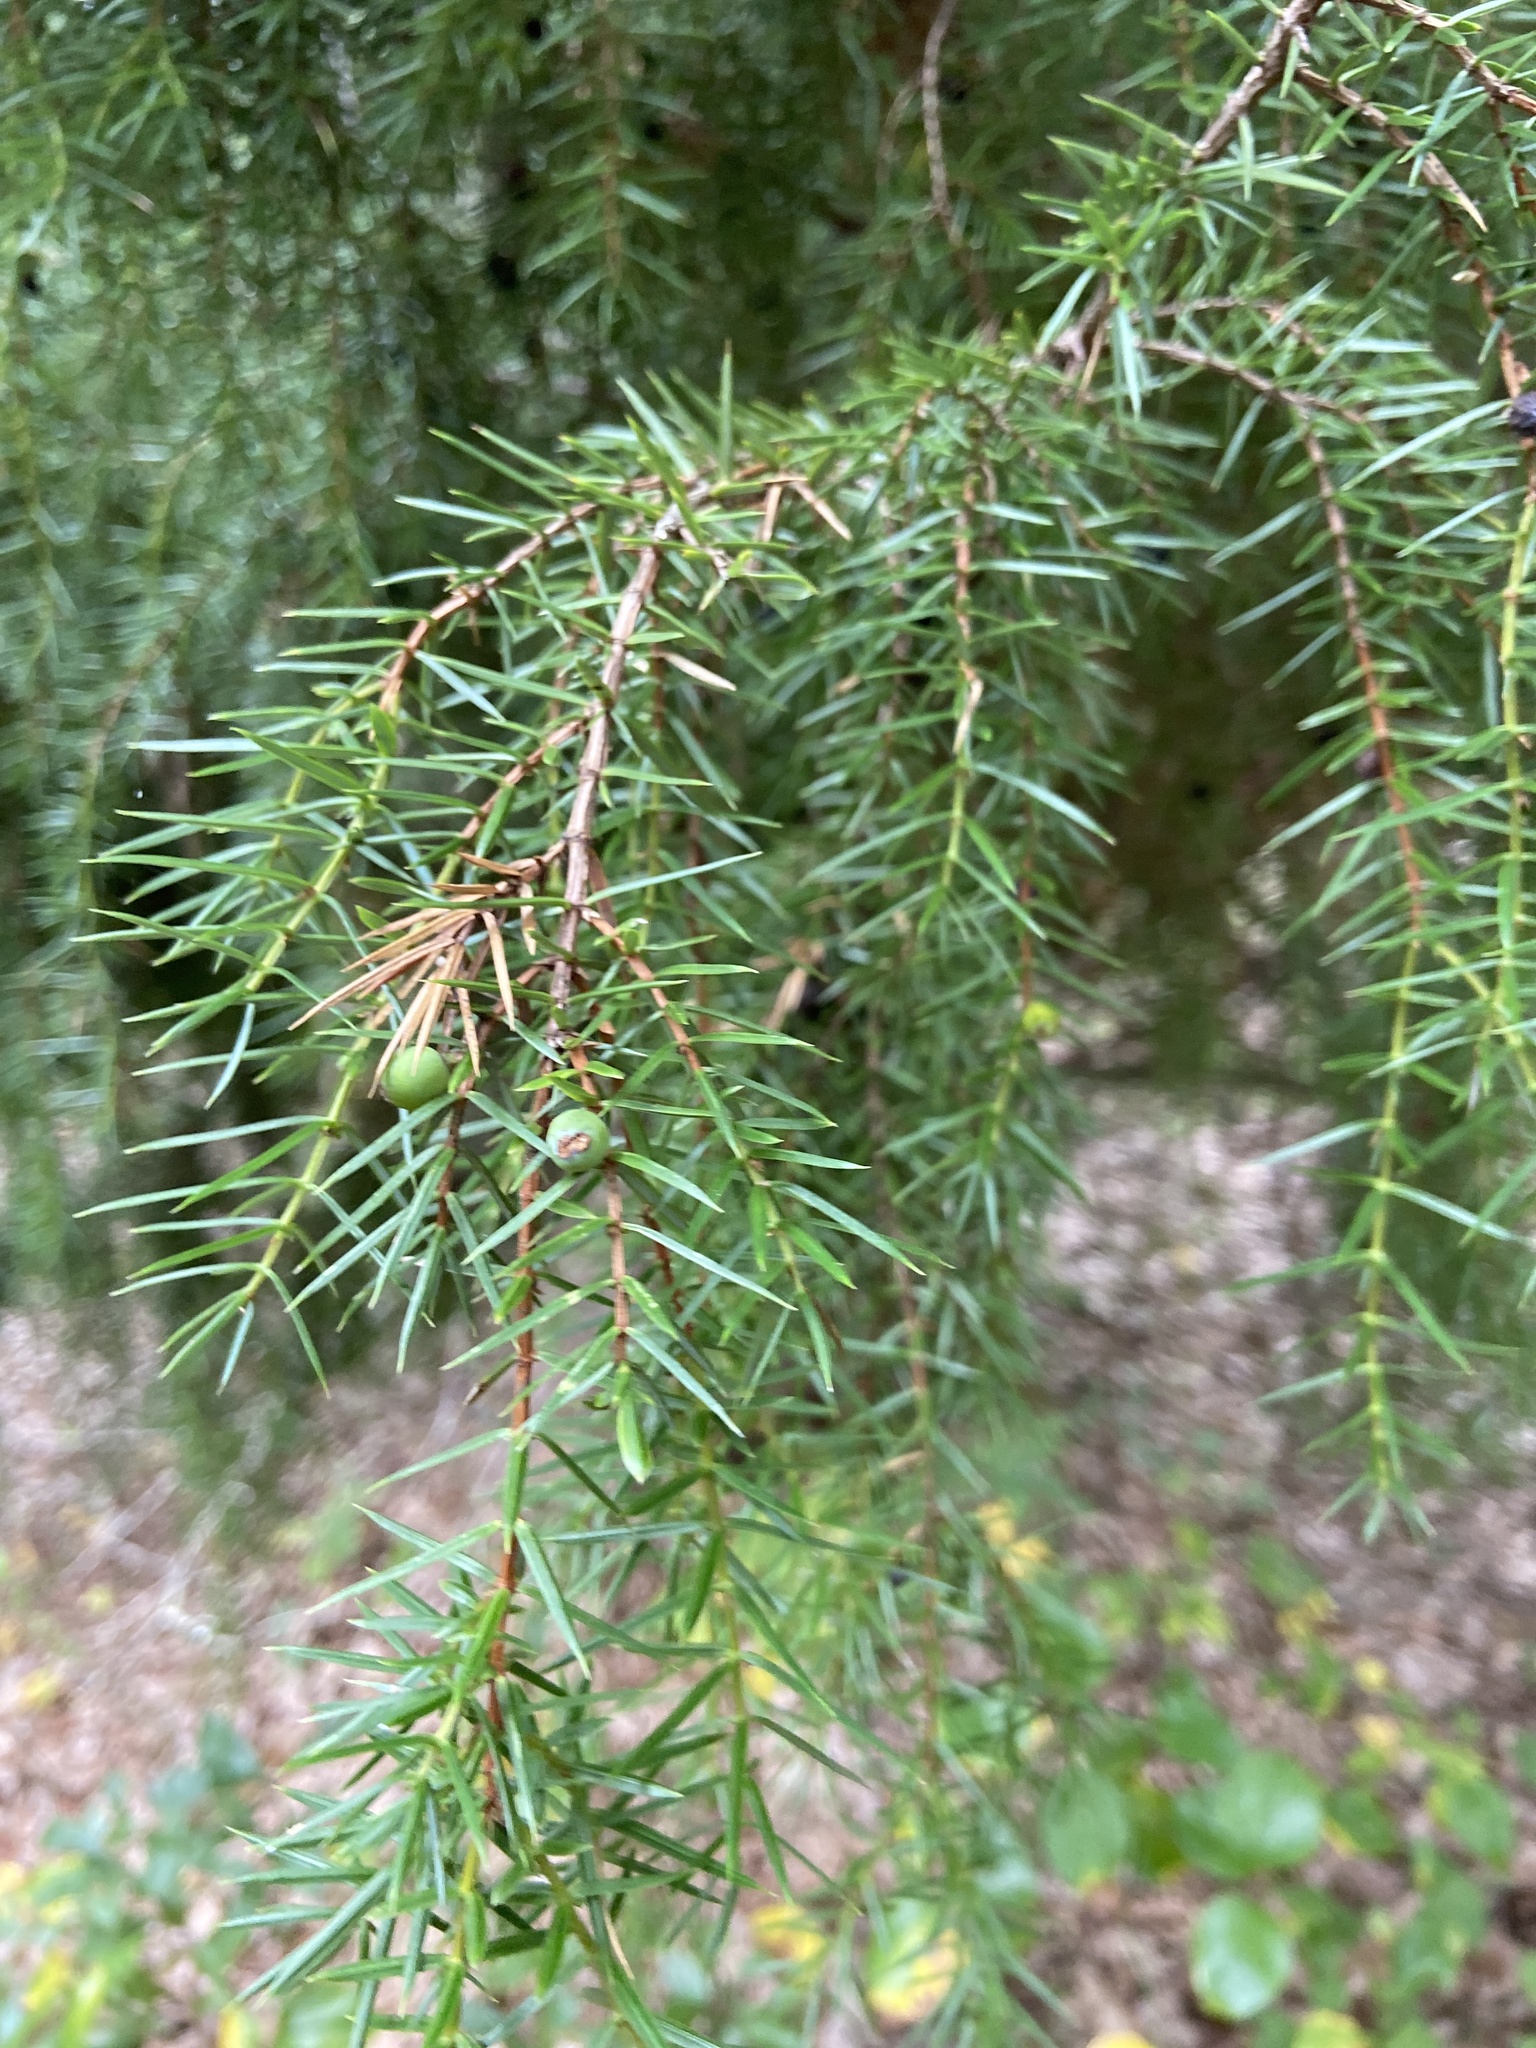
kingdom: Plantae
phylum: Tracheophyta
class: Pinopsida
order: Pinales
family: Cupressaceae
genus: Juniperus
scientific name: Juniperus communis
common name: Common juniper
